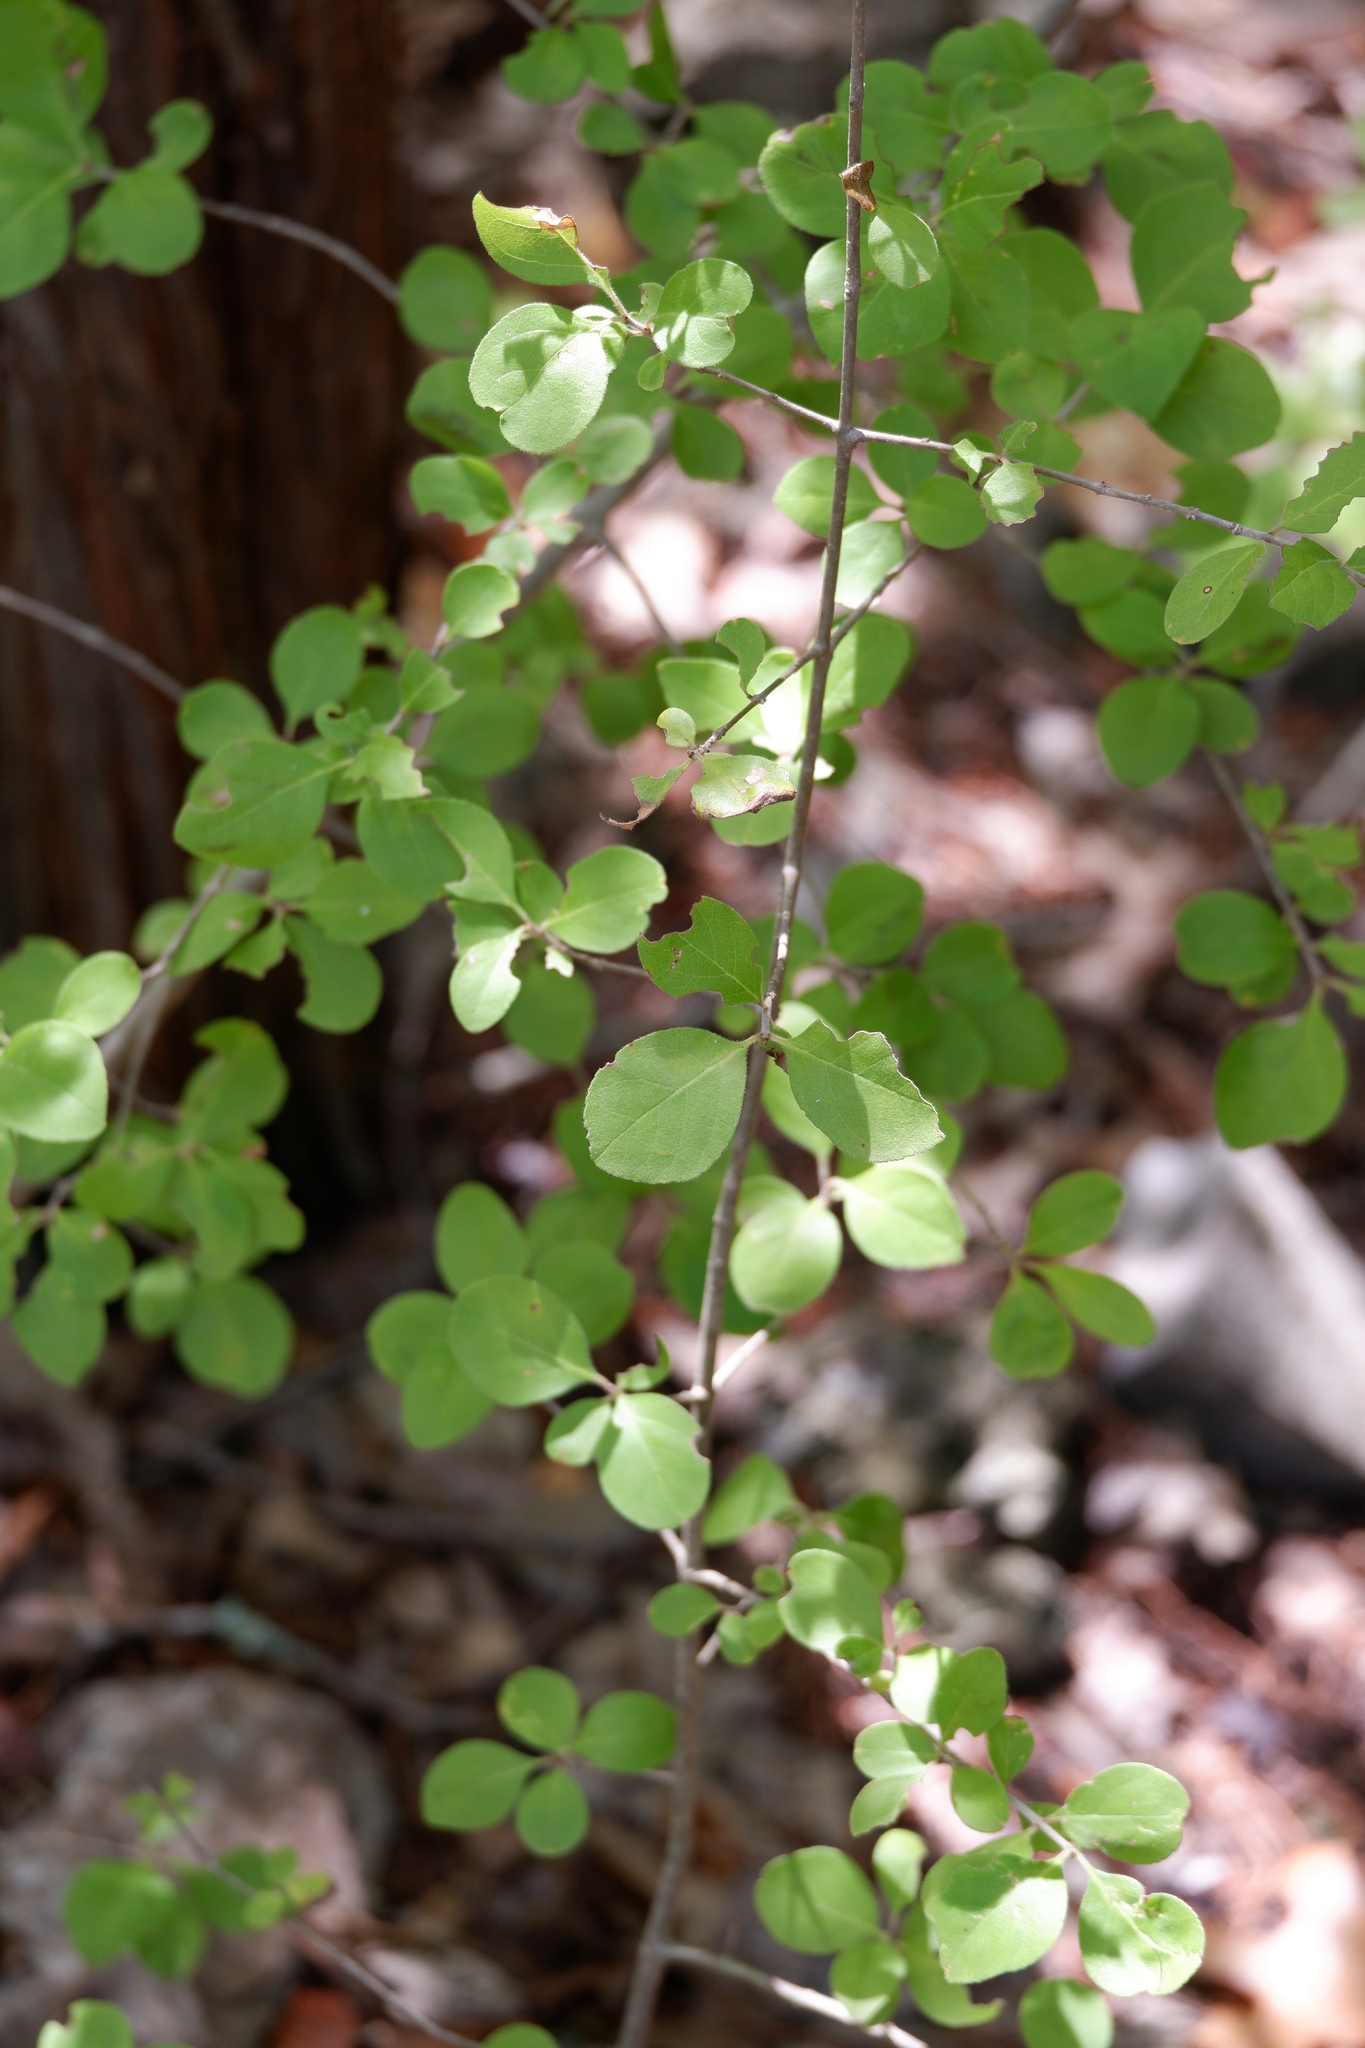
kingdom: Plantae
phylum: Tracheophyta
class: Magnoliopsida
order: Lamiales
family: Oleaceae
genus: Forestiera
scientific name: Forestiera pubescens
